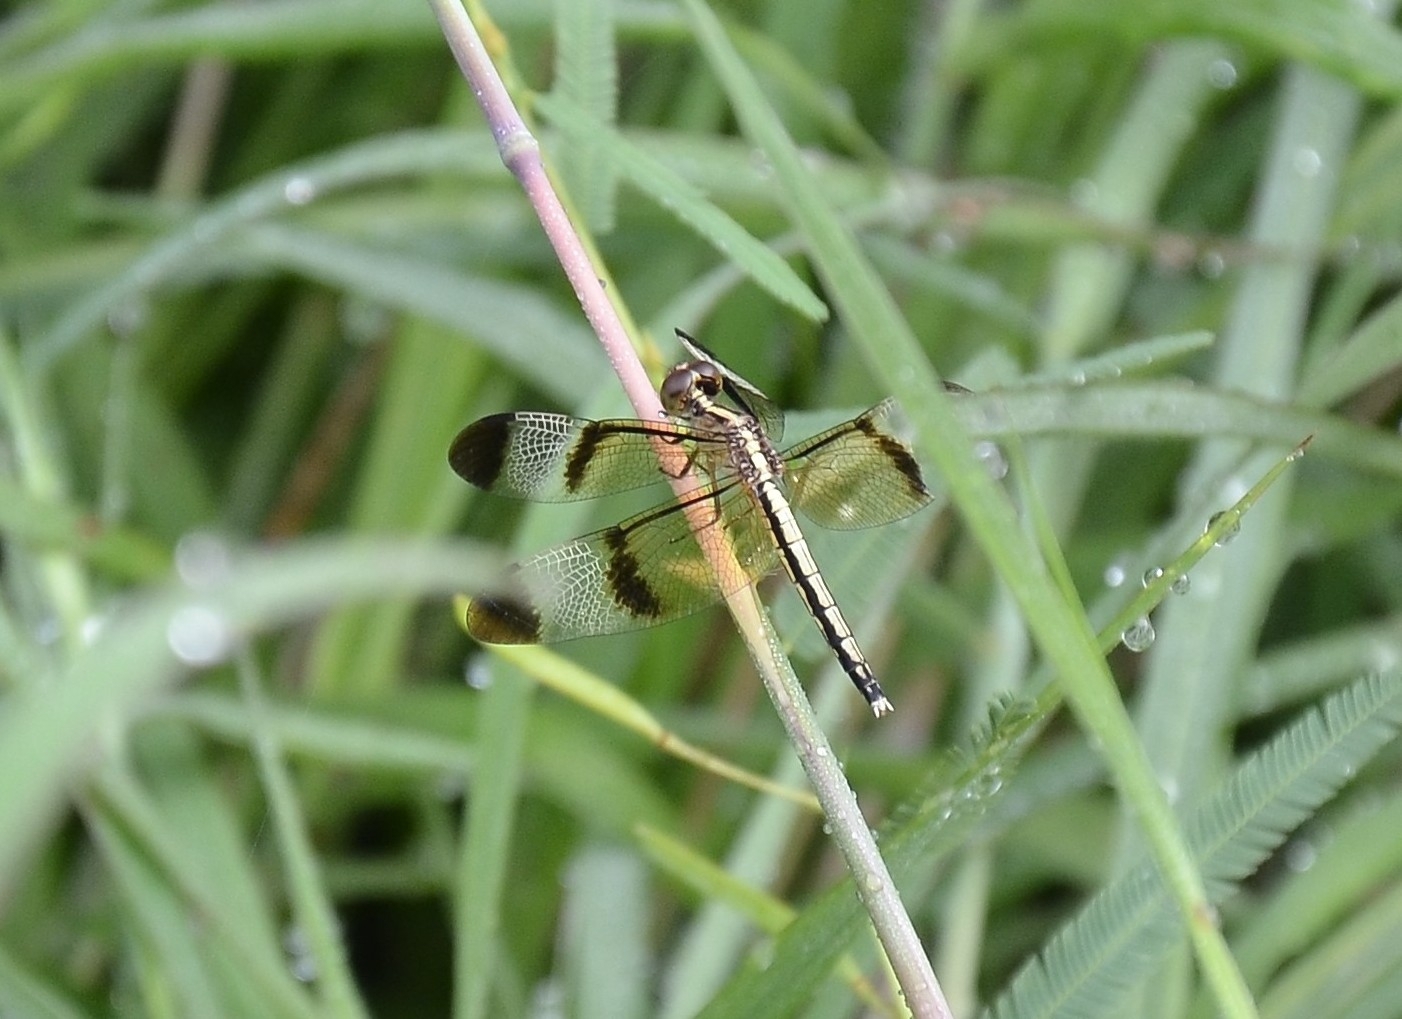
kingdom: Animalia
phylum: Arthropoda
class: Insecta
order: Odonata
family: Libellulidae
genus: Neurothemis
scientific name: Neurothemis tullia
